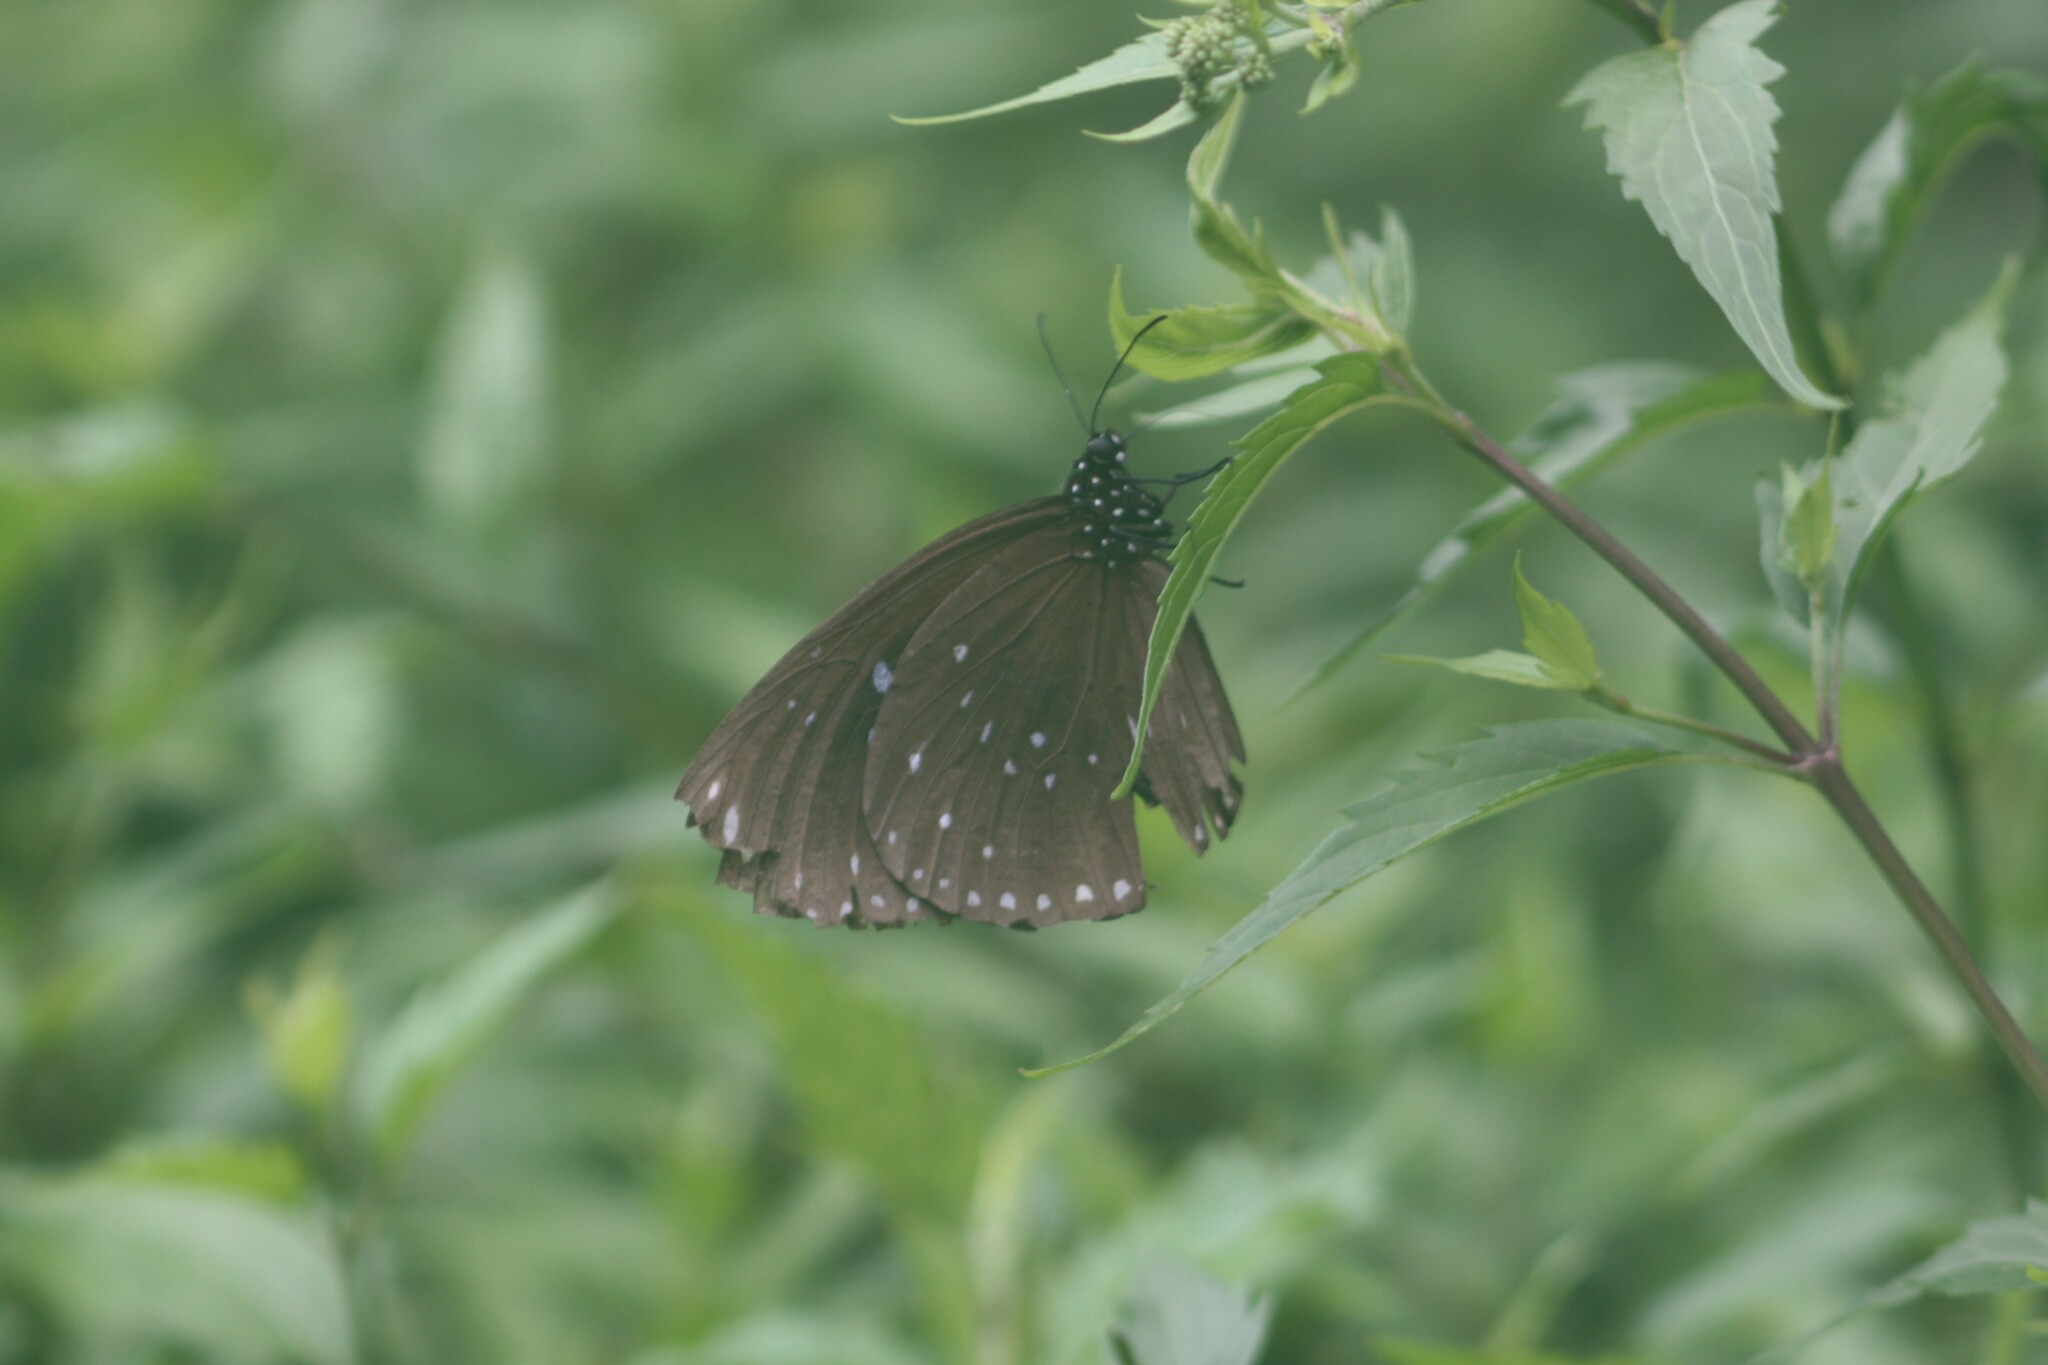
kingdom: Animalia
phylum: Arthropoda
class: Insecta
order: Lepidoptera
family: Nymphalidae
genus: Euploea
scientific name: Euploea sylvester
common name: Double-branded crow butterfly
